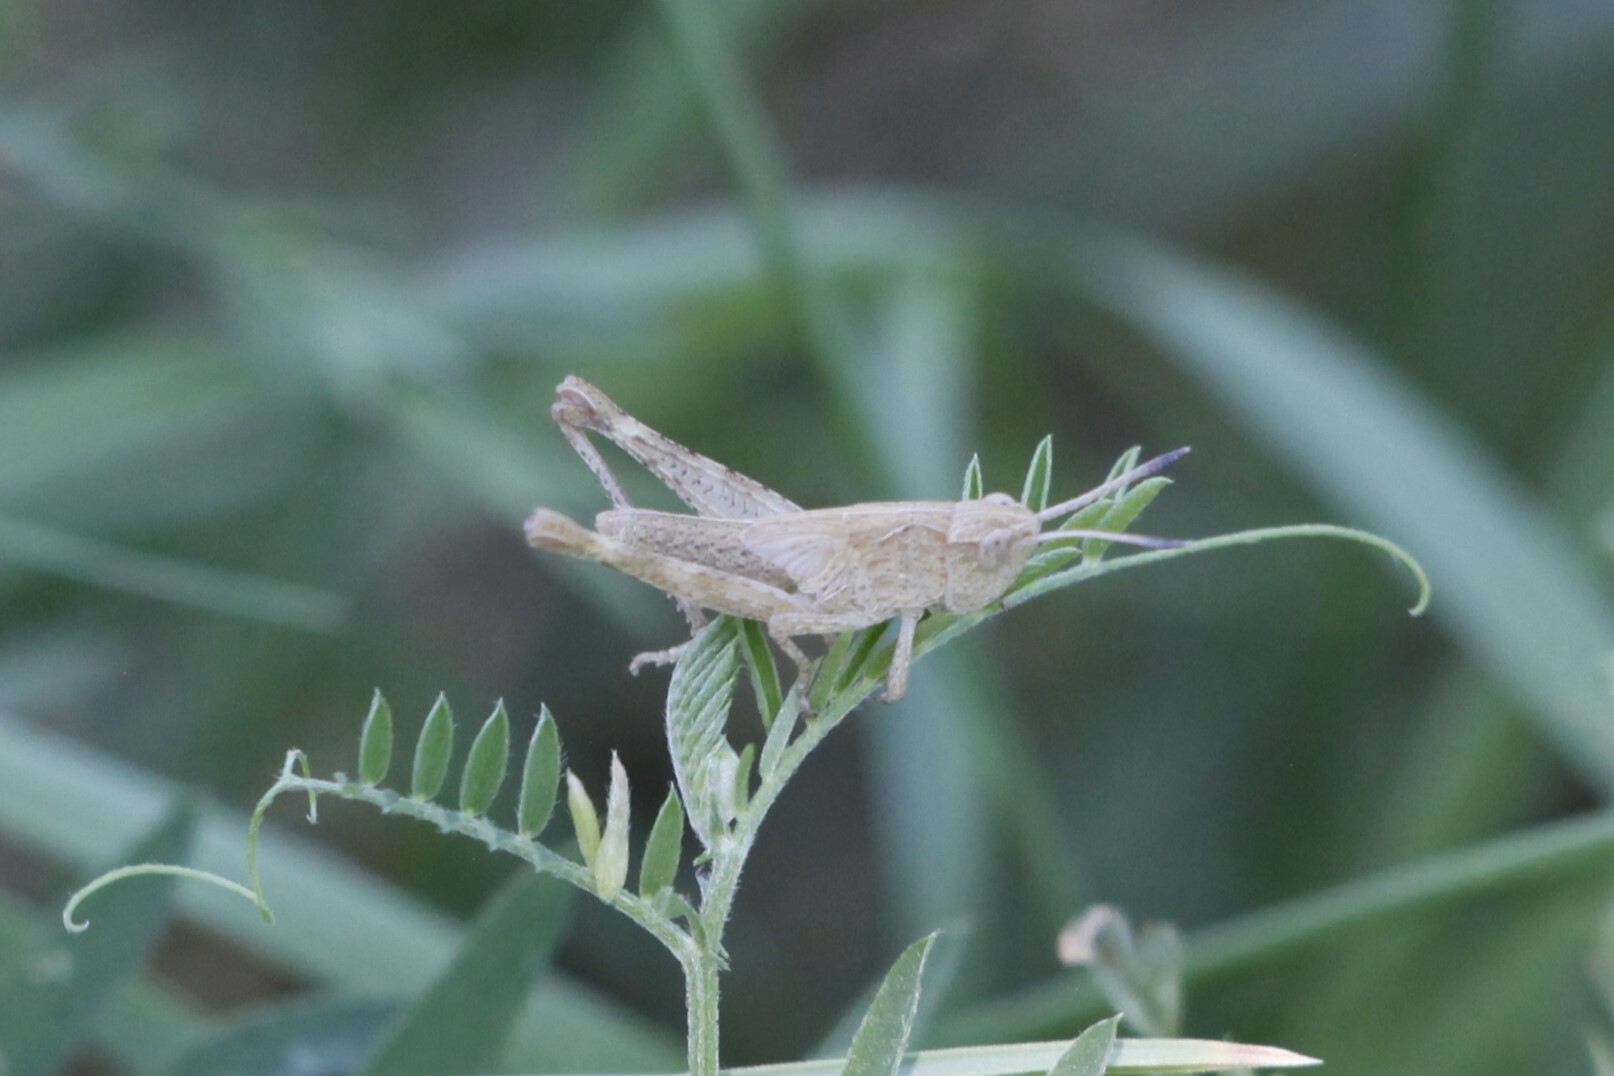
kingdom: Animalia
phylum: Arthropoda
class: Insecta
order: Orthoptera
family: Acrididae
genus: Gomphocerippus
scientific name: Gomphocerippus rufus
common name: Rufous grasshopper
